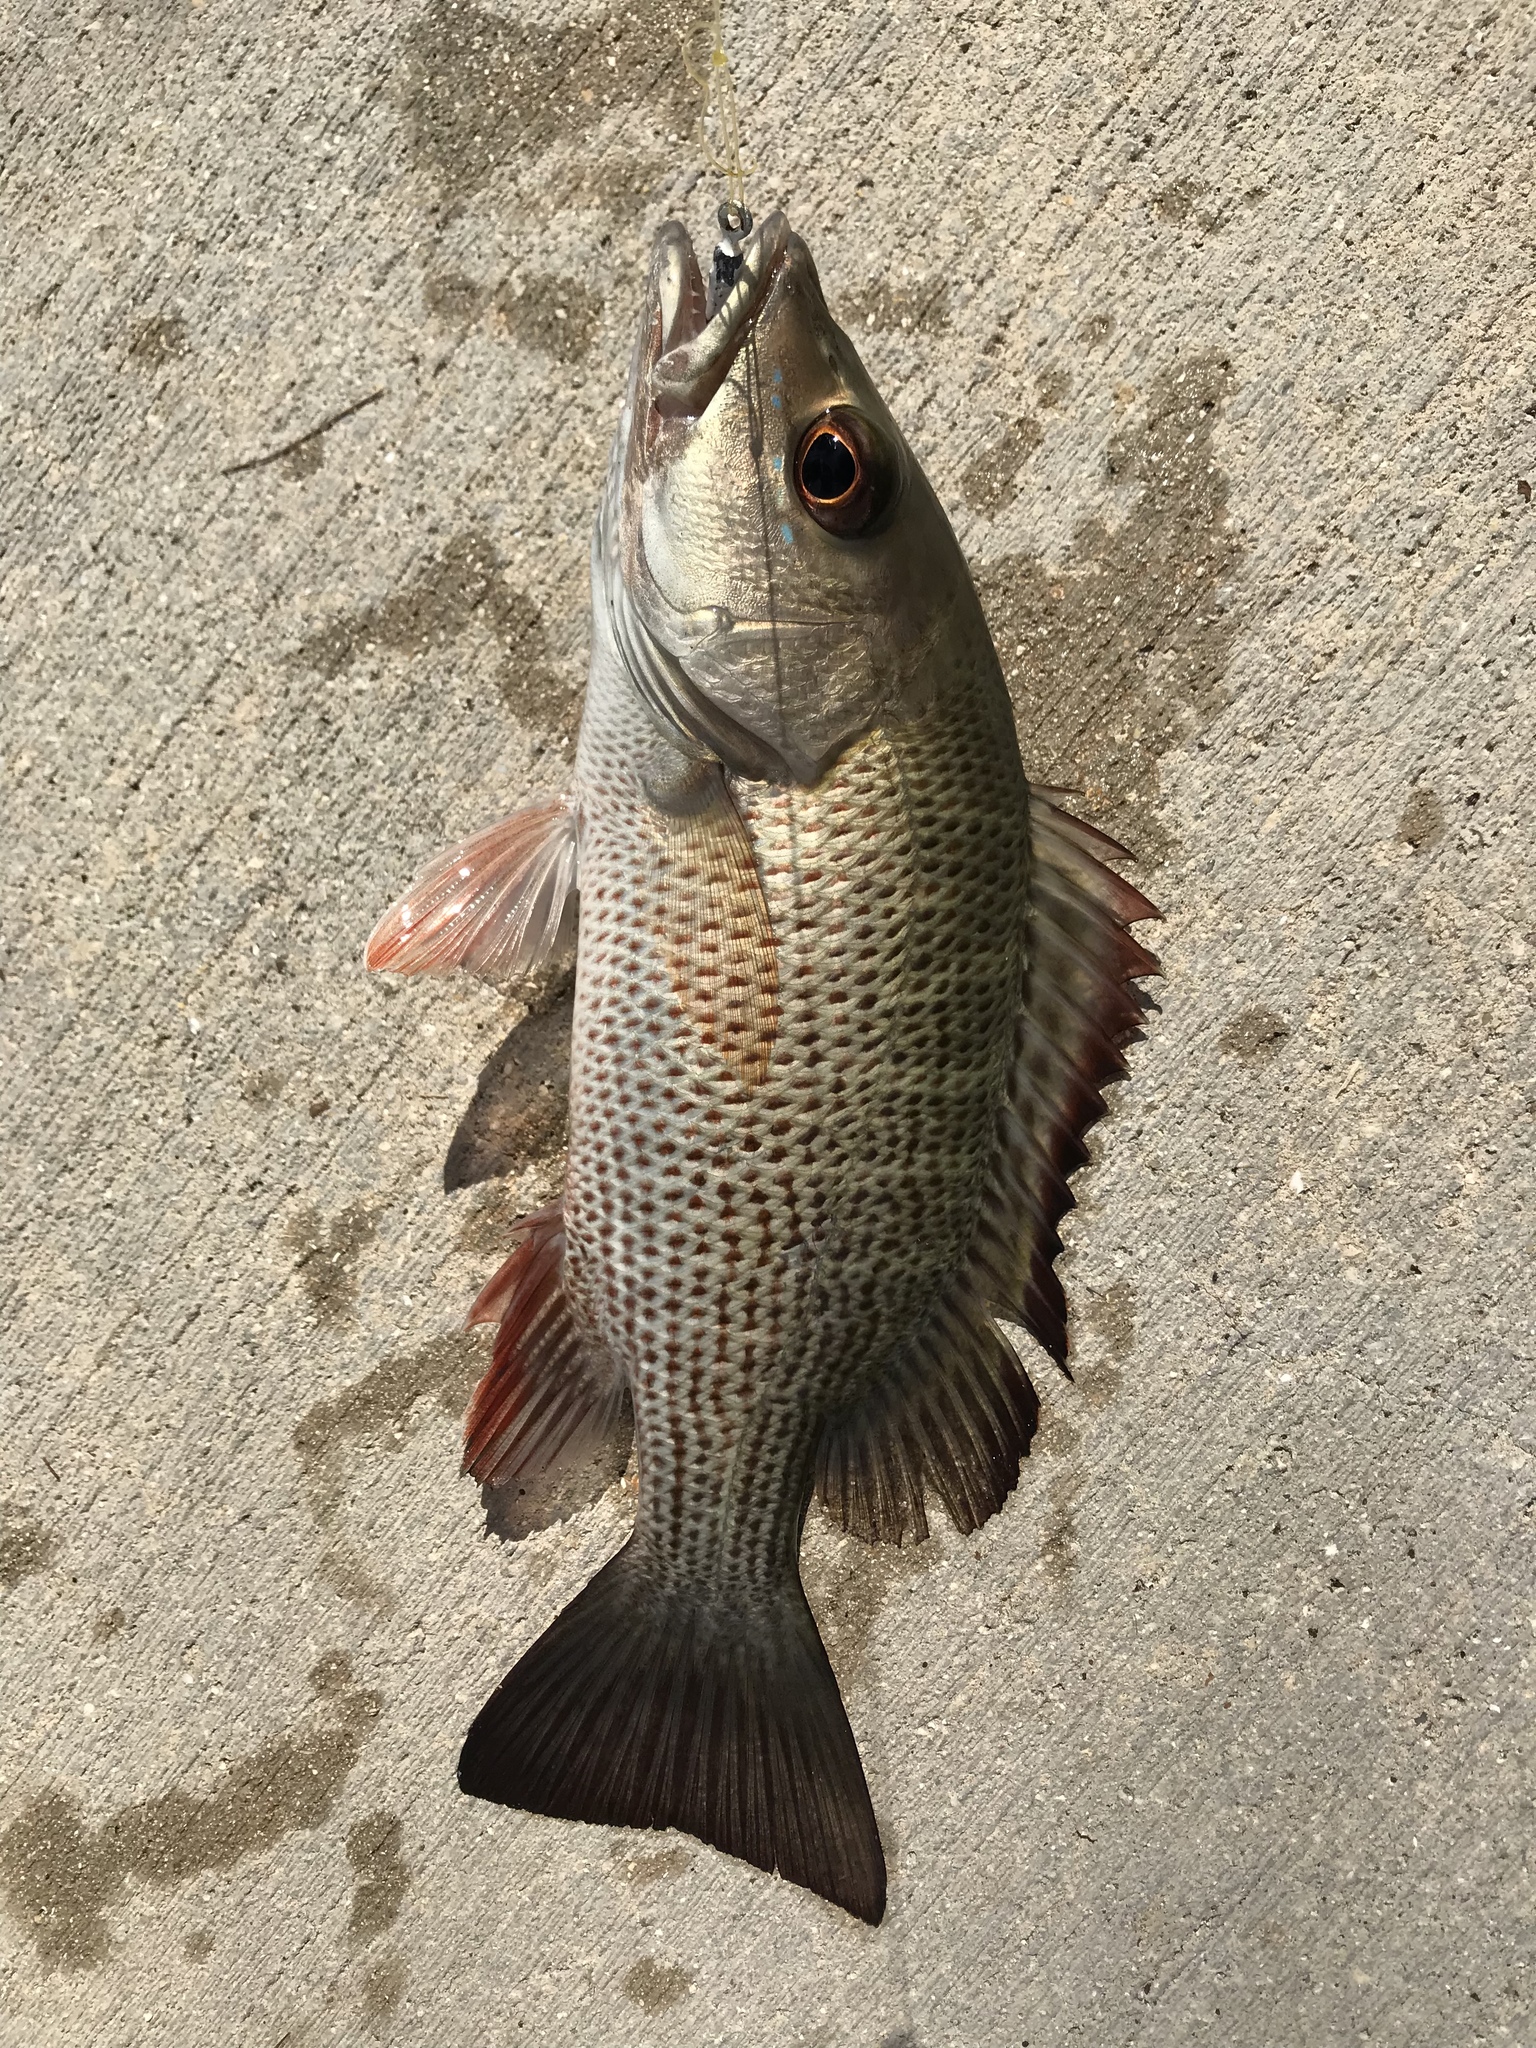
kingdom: Animalia
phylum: Chordata
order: Perciformes
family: Lutjanidae
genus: Lutjanus
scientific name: Lutjanus griseus
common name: Gray snapper
